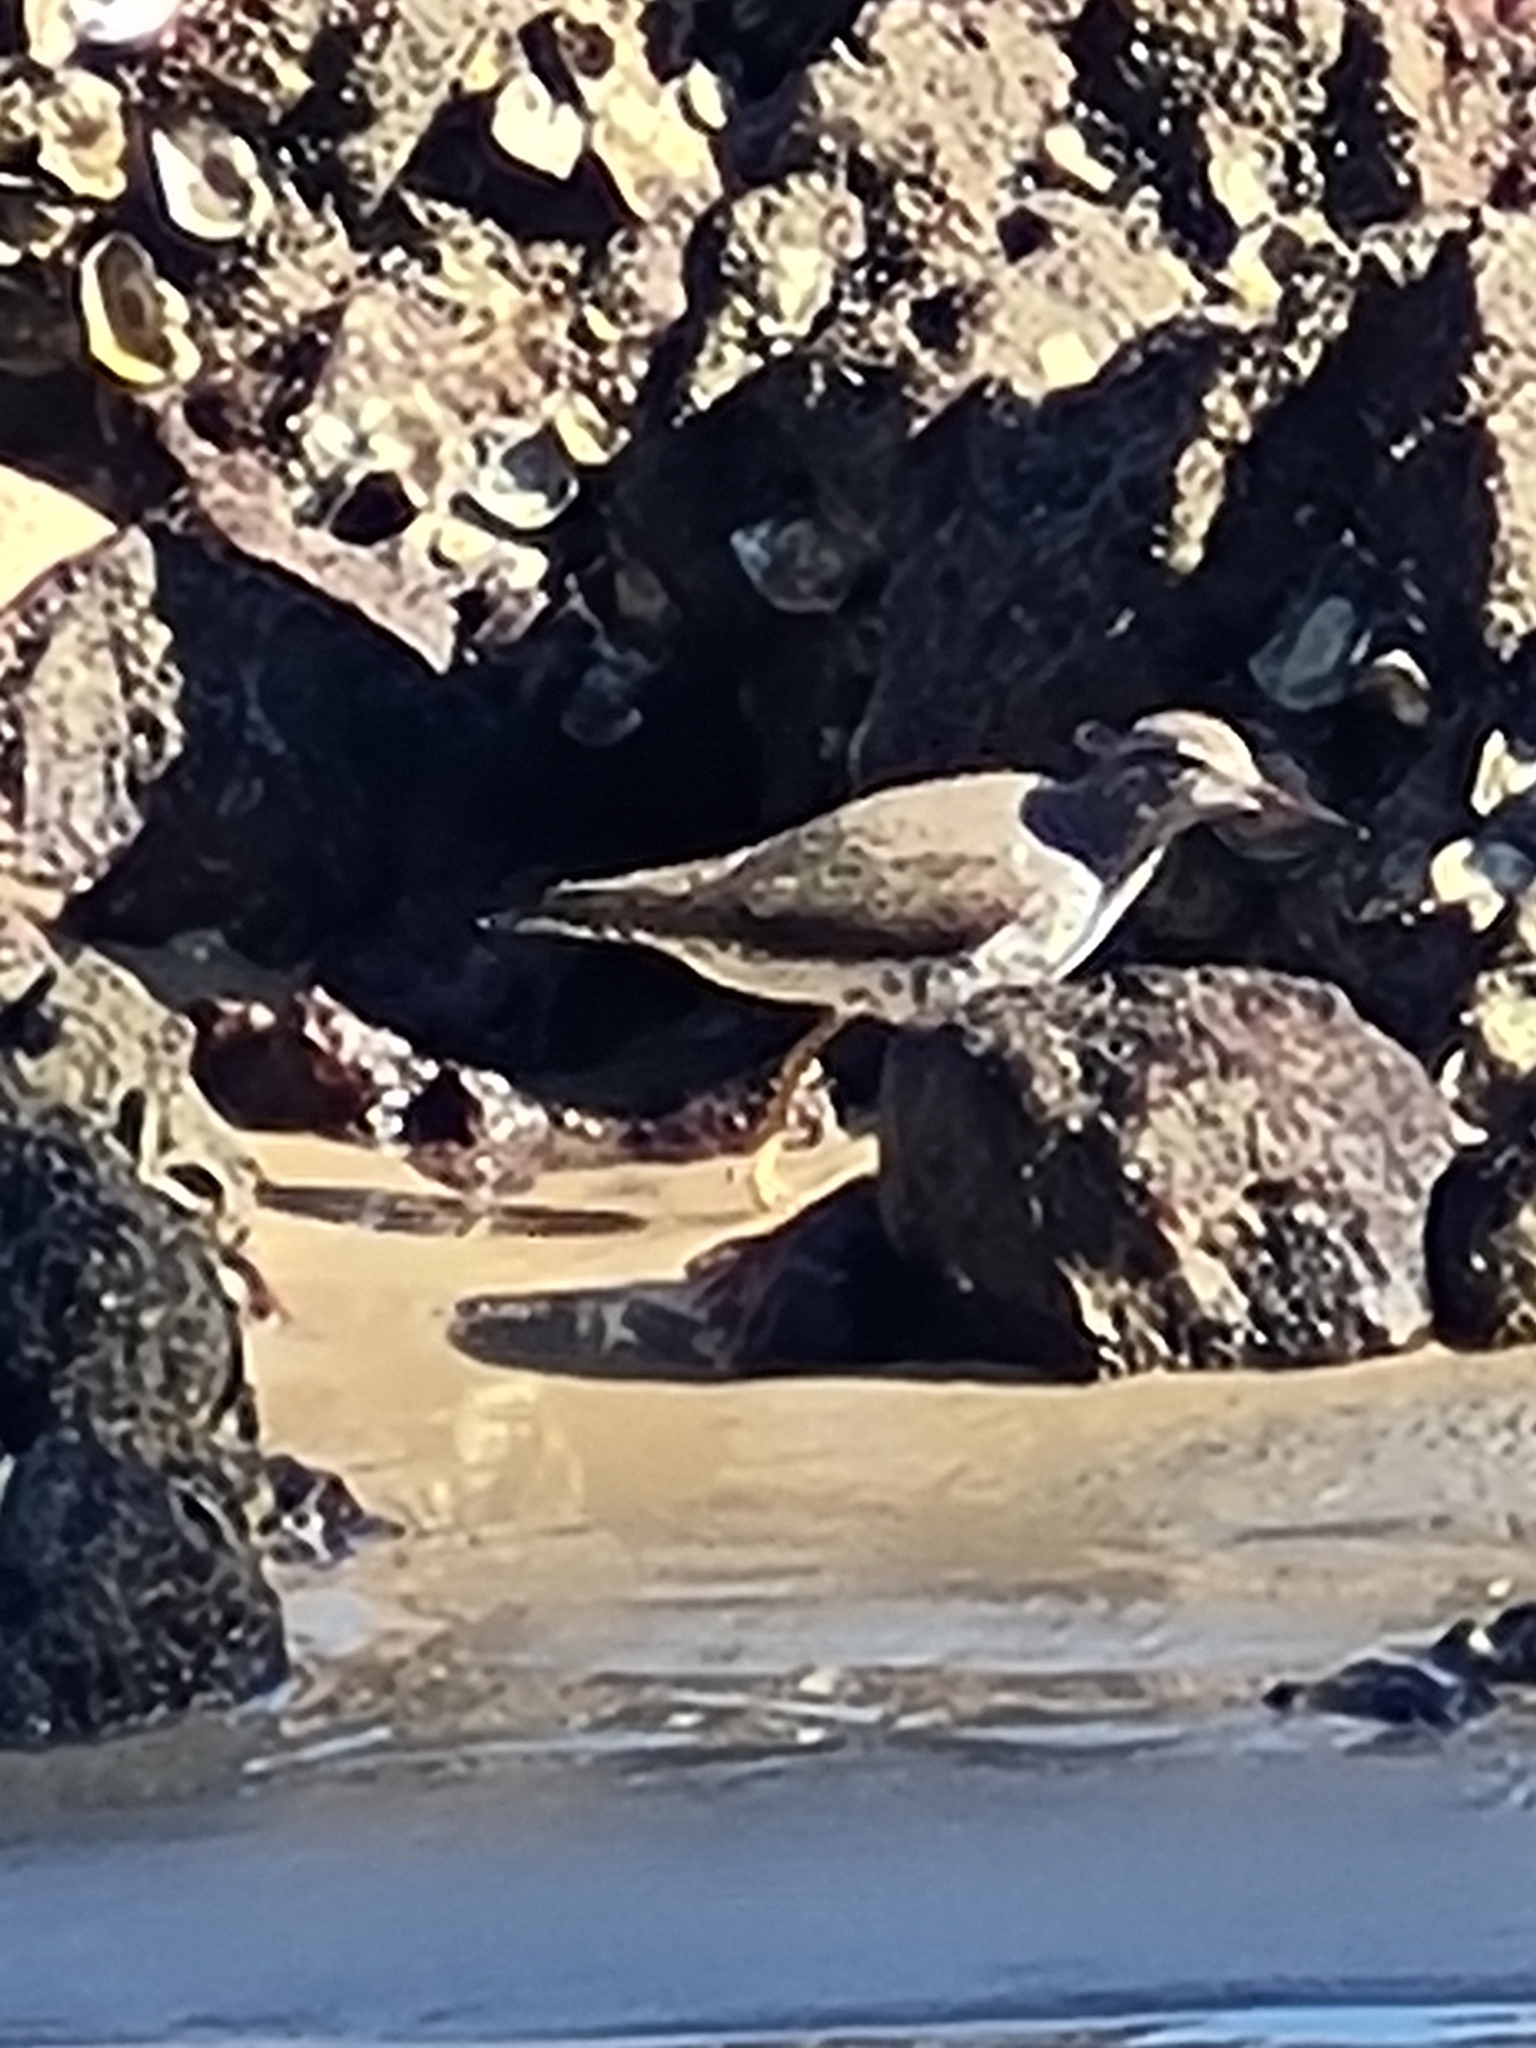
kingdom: Animalia
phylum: Chordata
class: Aves
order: Charadriiformes
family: Scolopacidae
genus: Actitis
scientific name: Actitis macularius
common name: Spotted sandpiper
